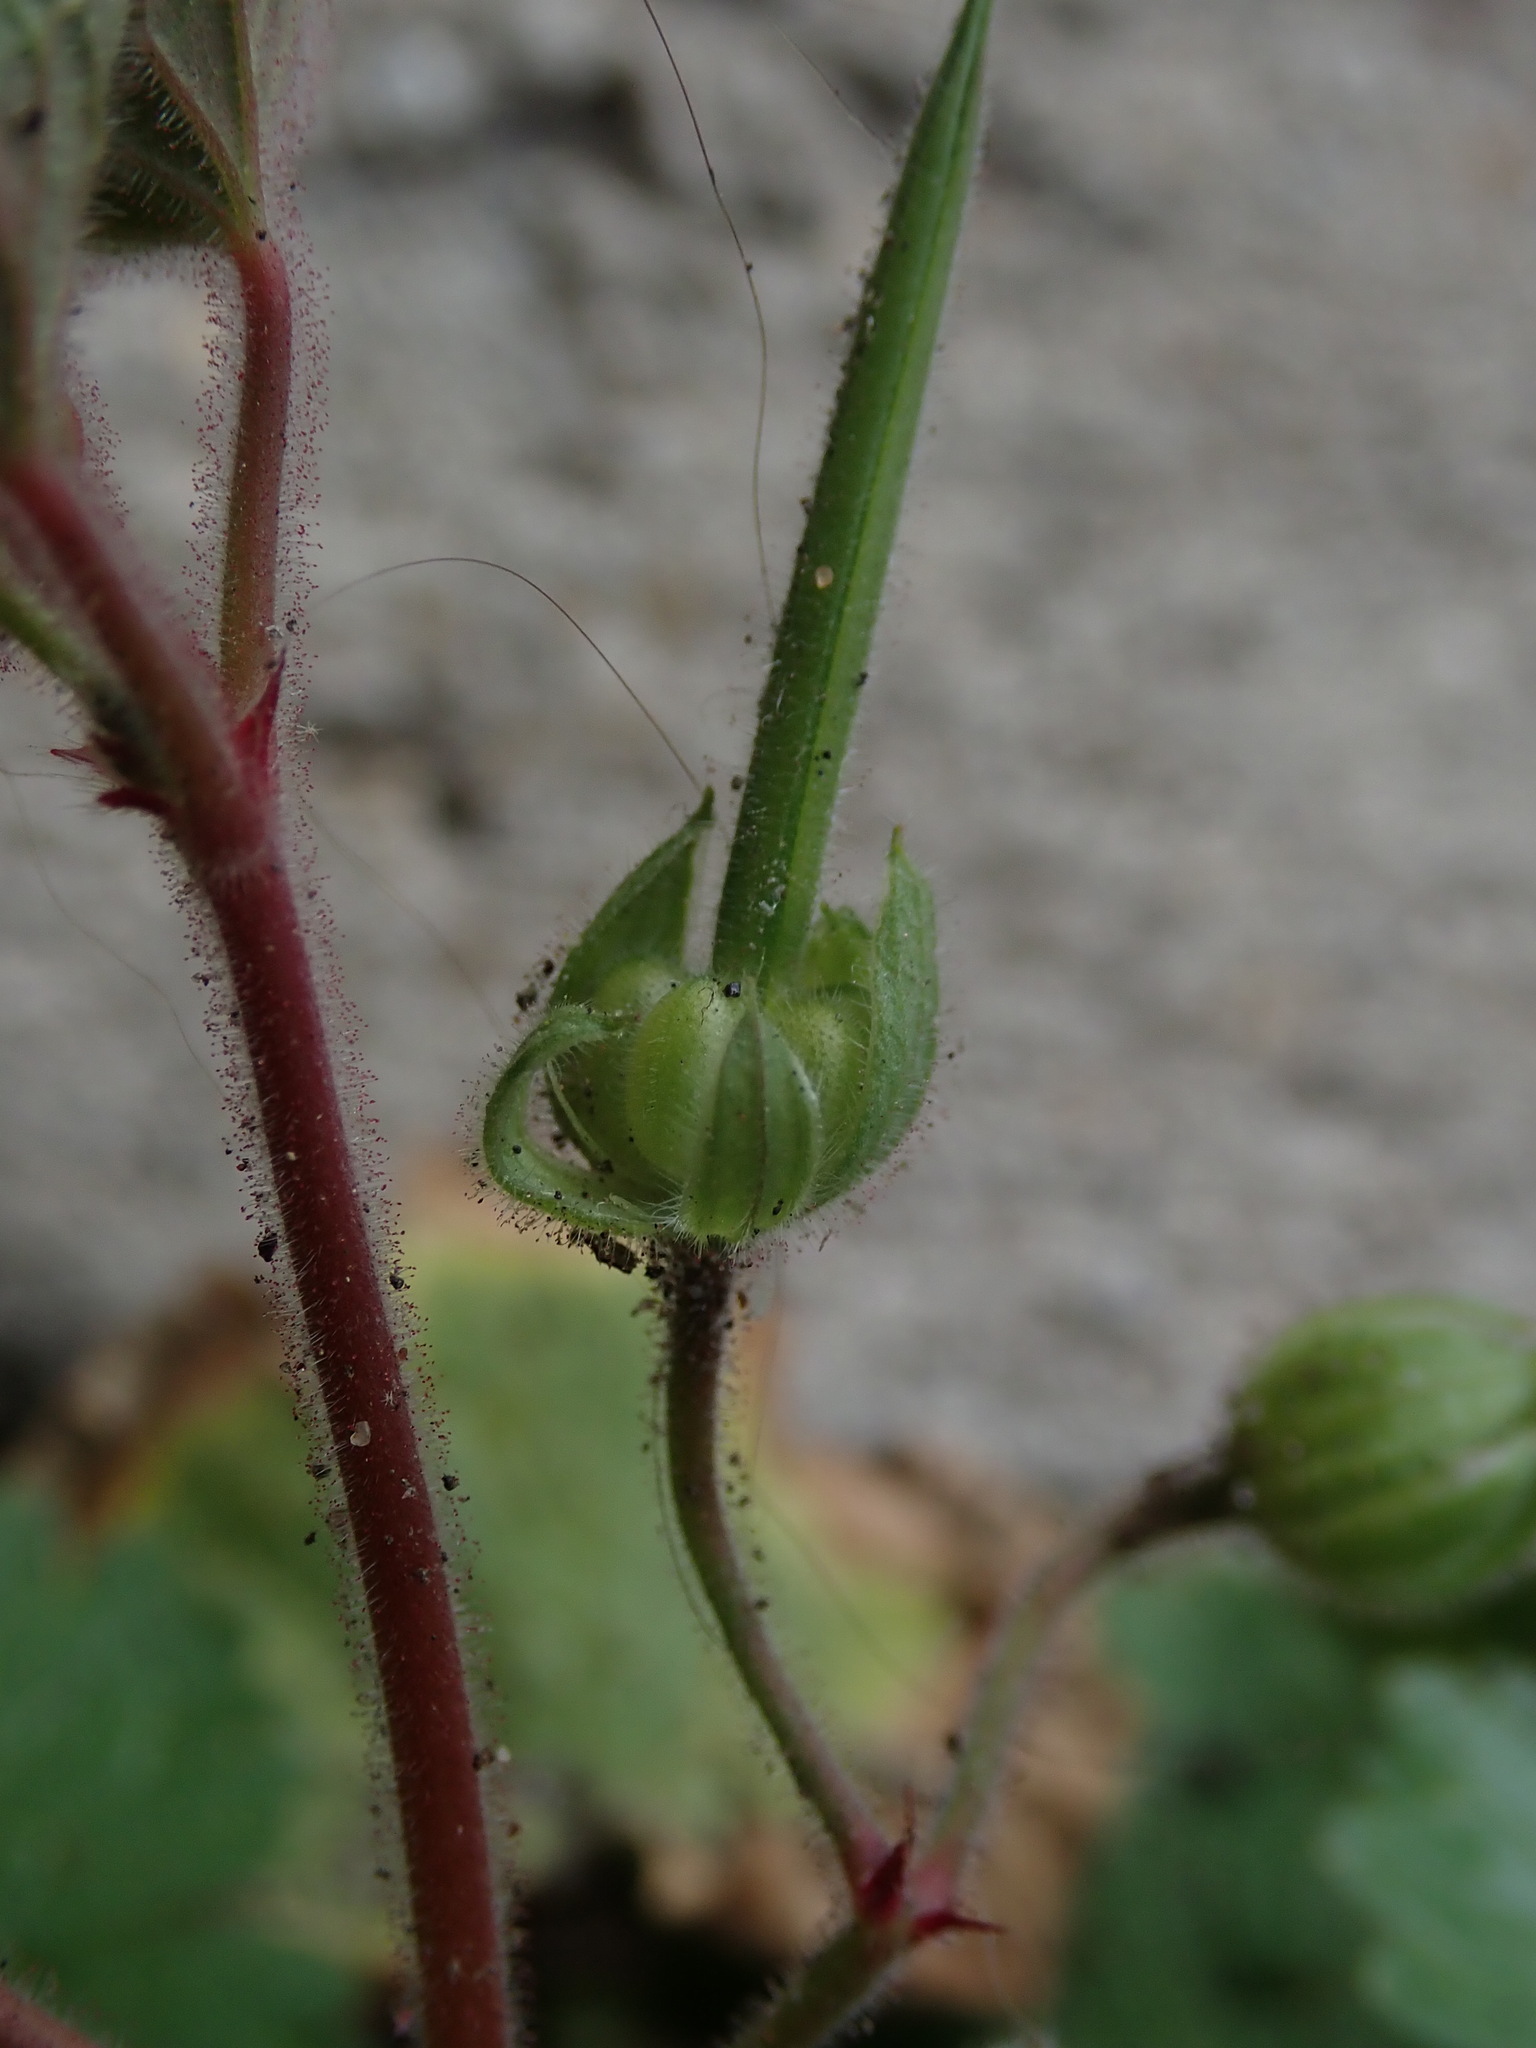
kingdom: Plantae
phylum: Tracheophyta
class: Magnoliopsida
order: Geraniales
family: Geraniaceae
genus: Geranium
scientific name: Geranium rotundifolium
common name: Round-leaved crane's-bill
